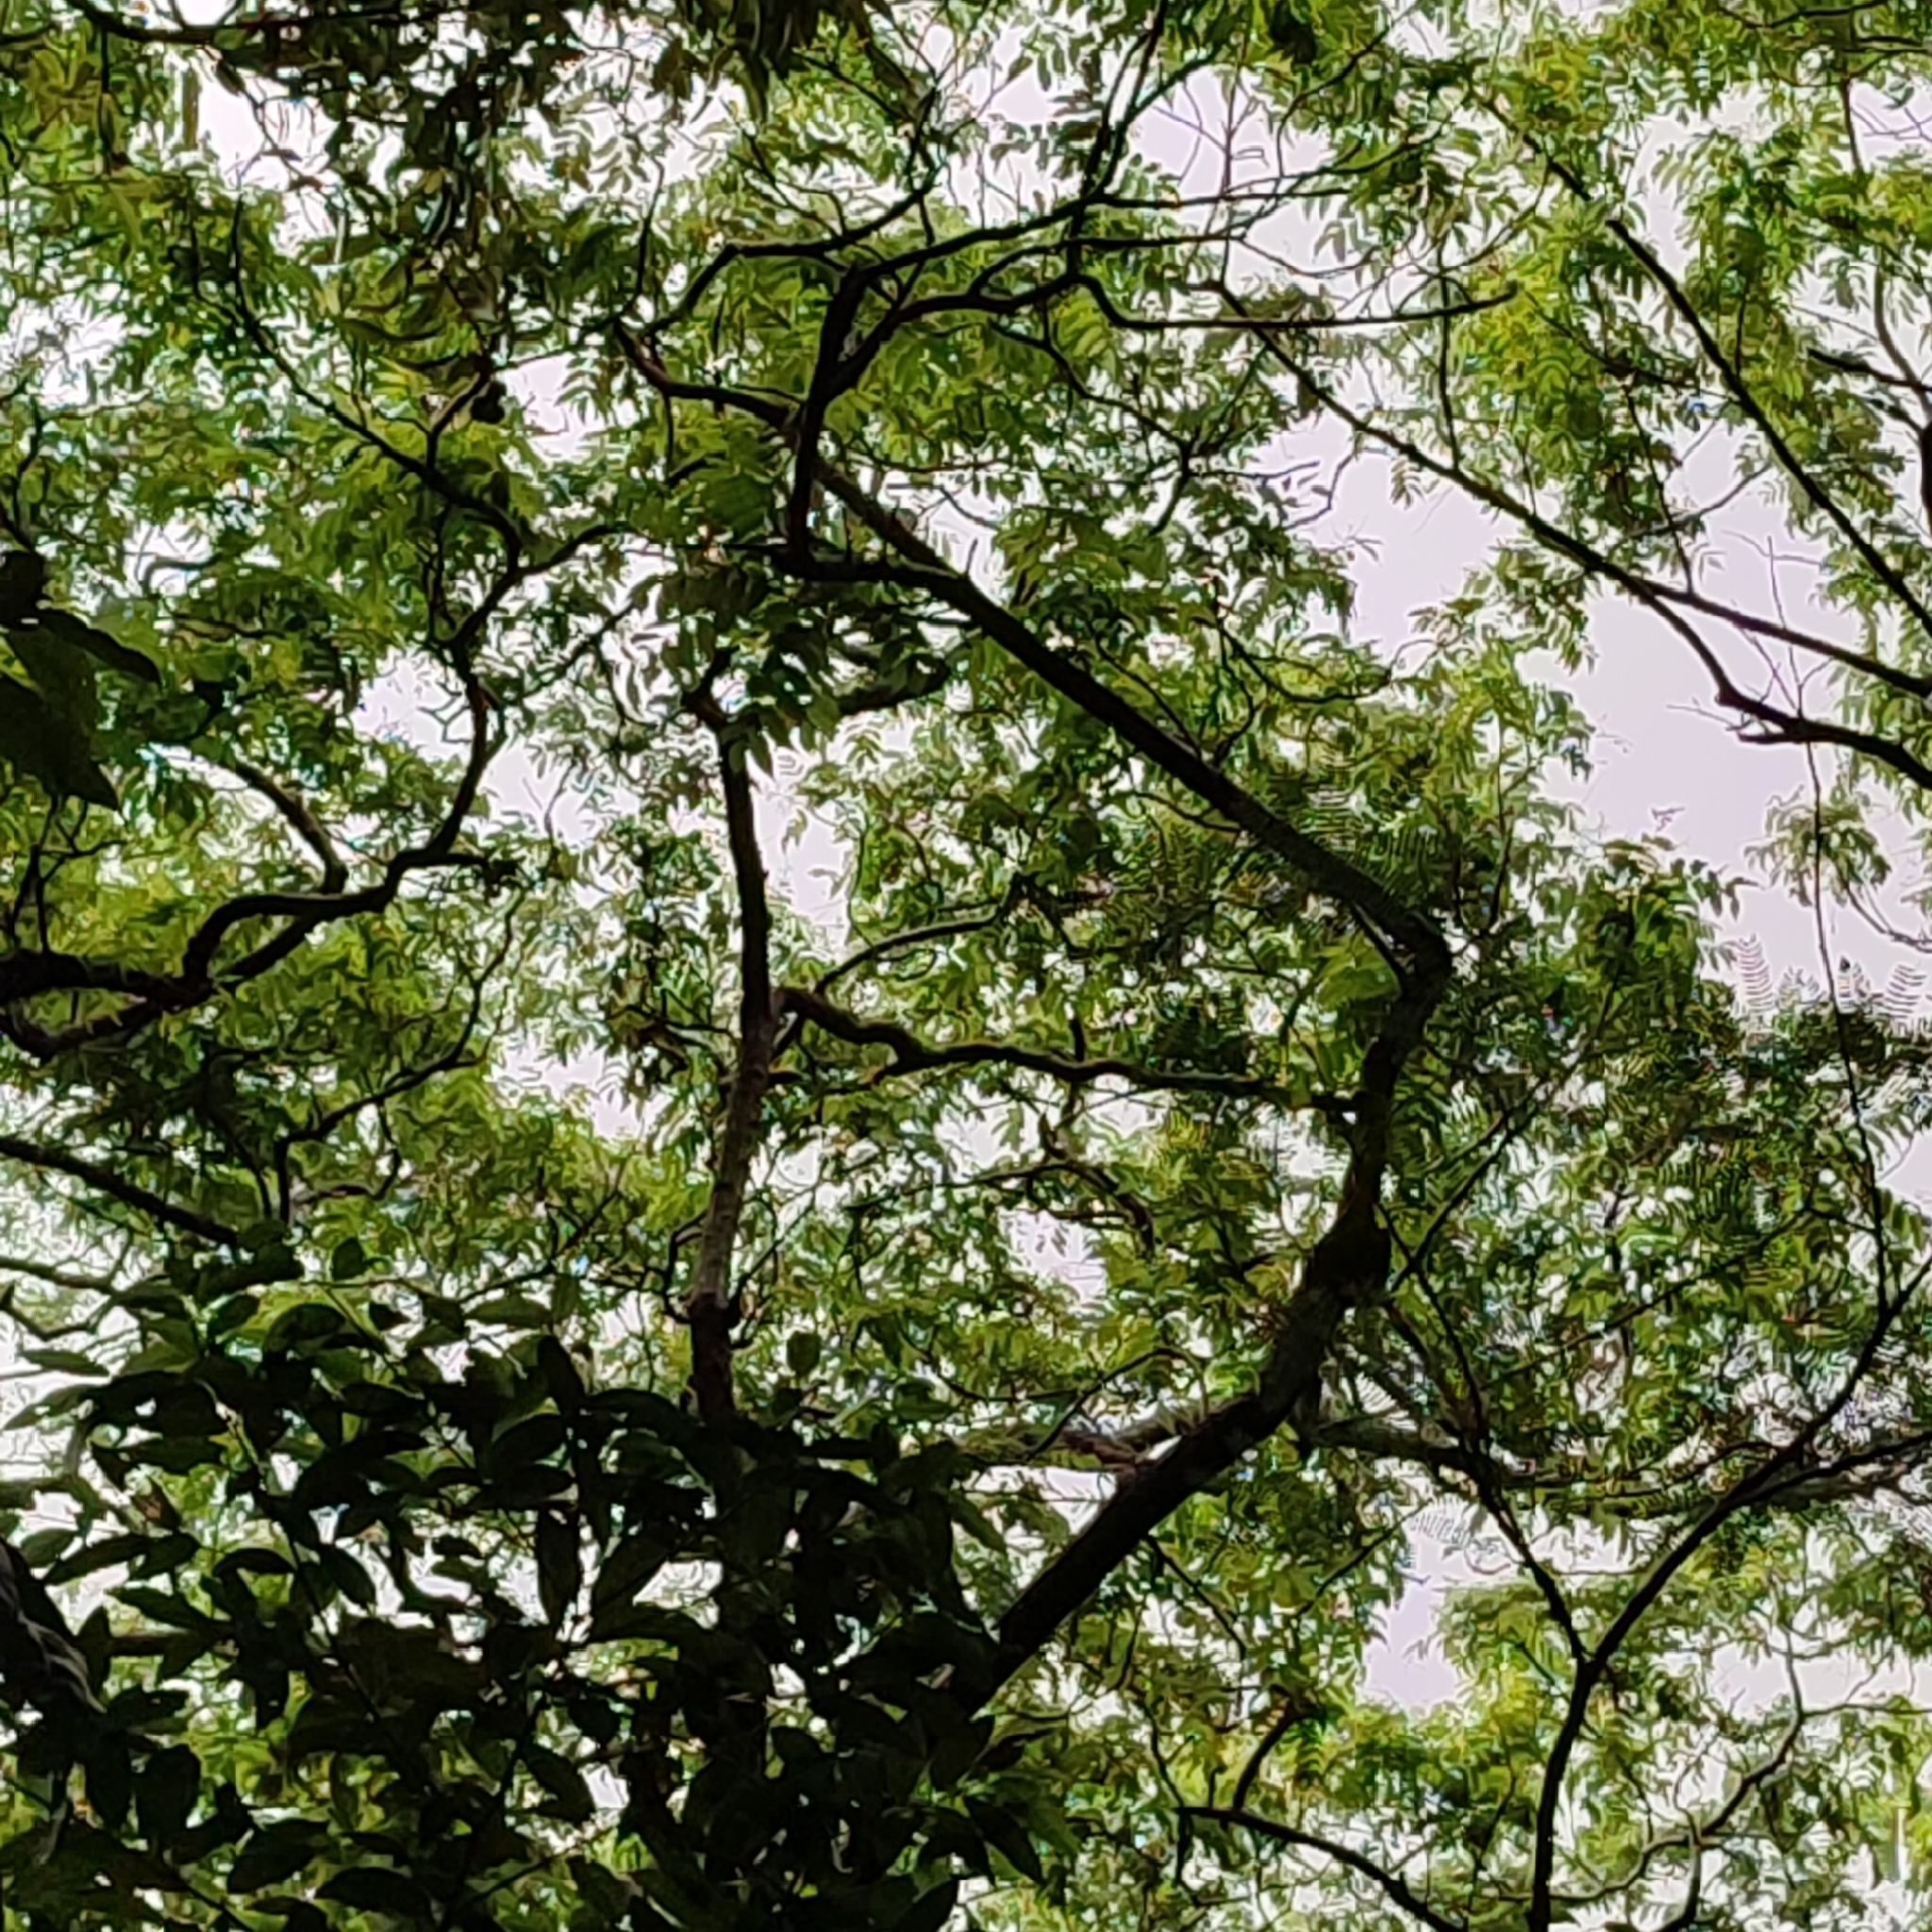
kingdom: Plantae
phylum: Tracheophyta
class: Magnoliopsida
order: Sapindales
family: Anacardiaceae
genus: Spondias
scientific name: Spondias mombin
